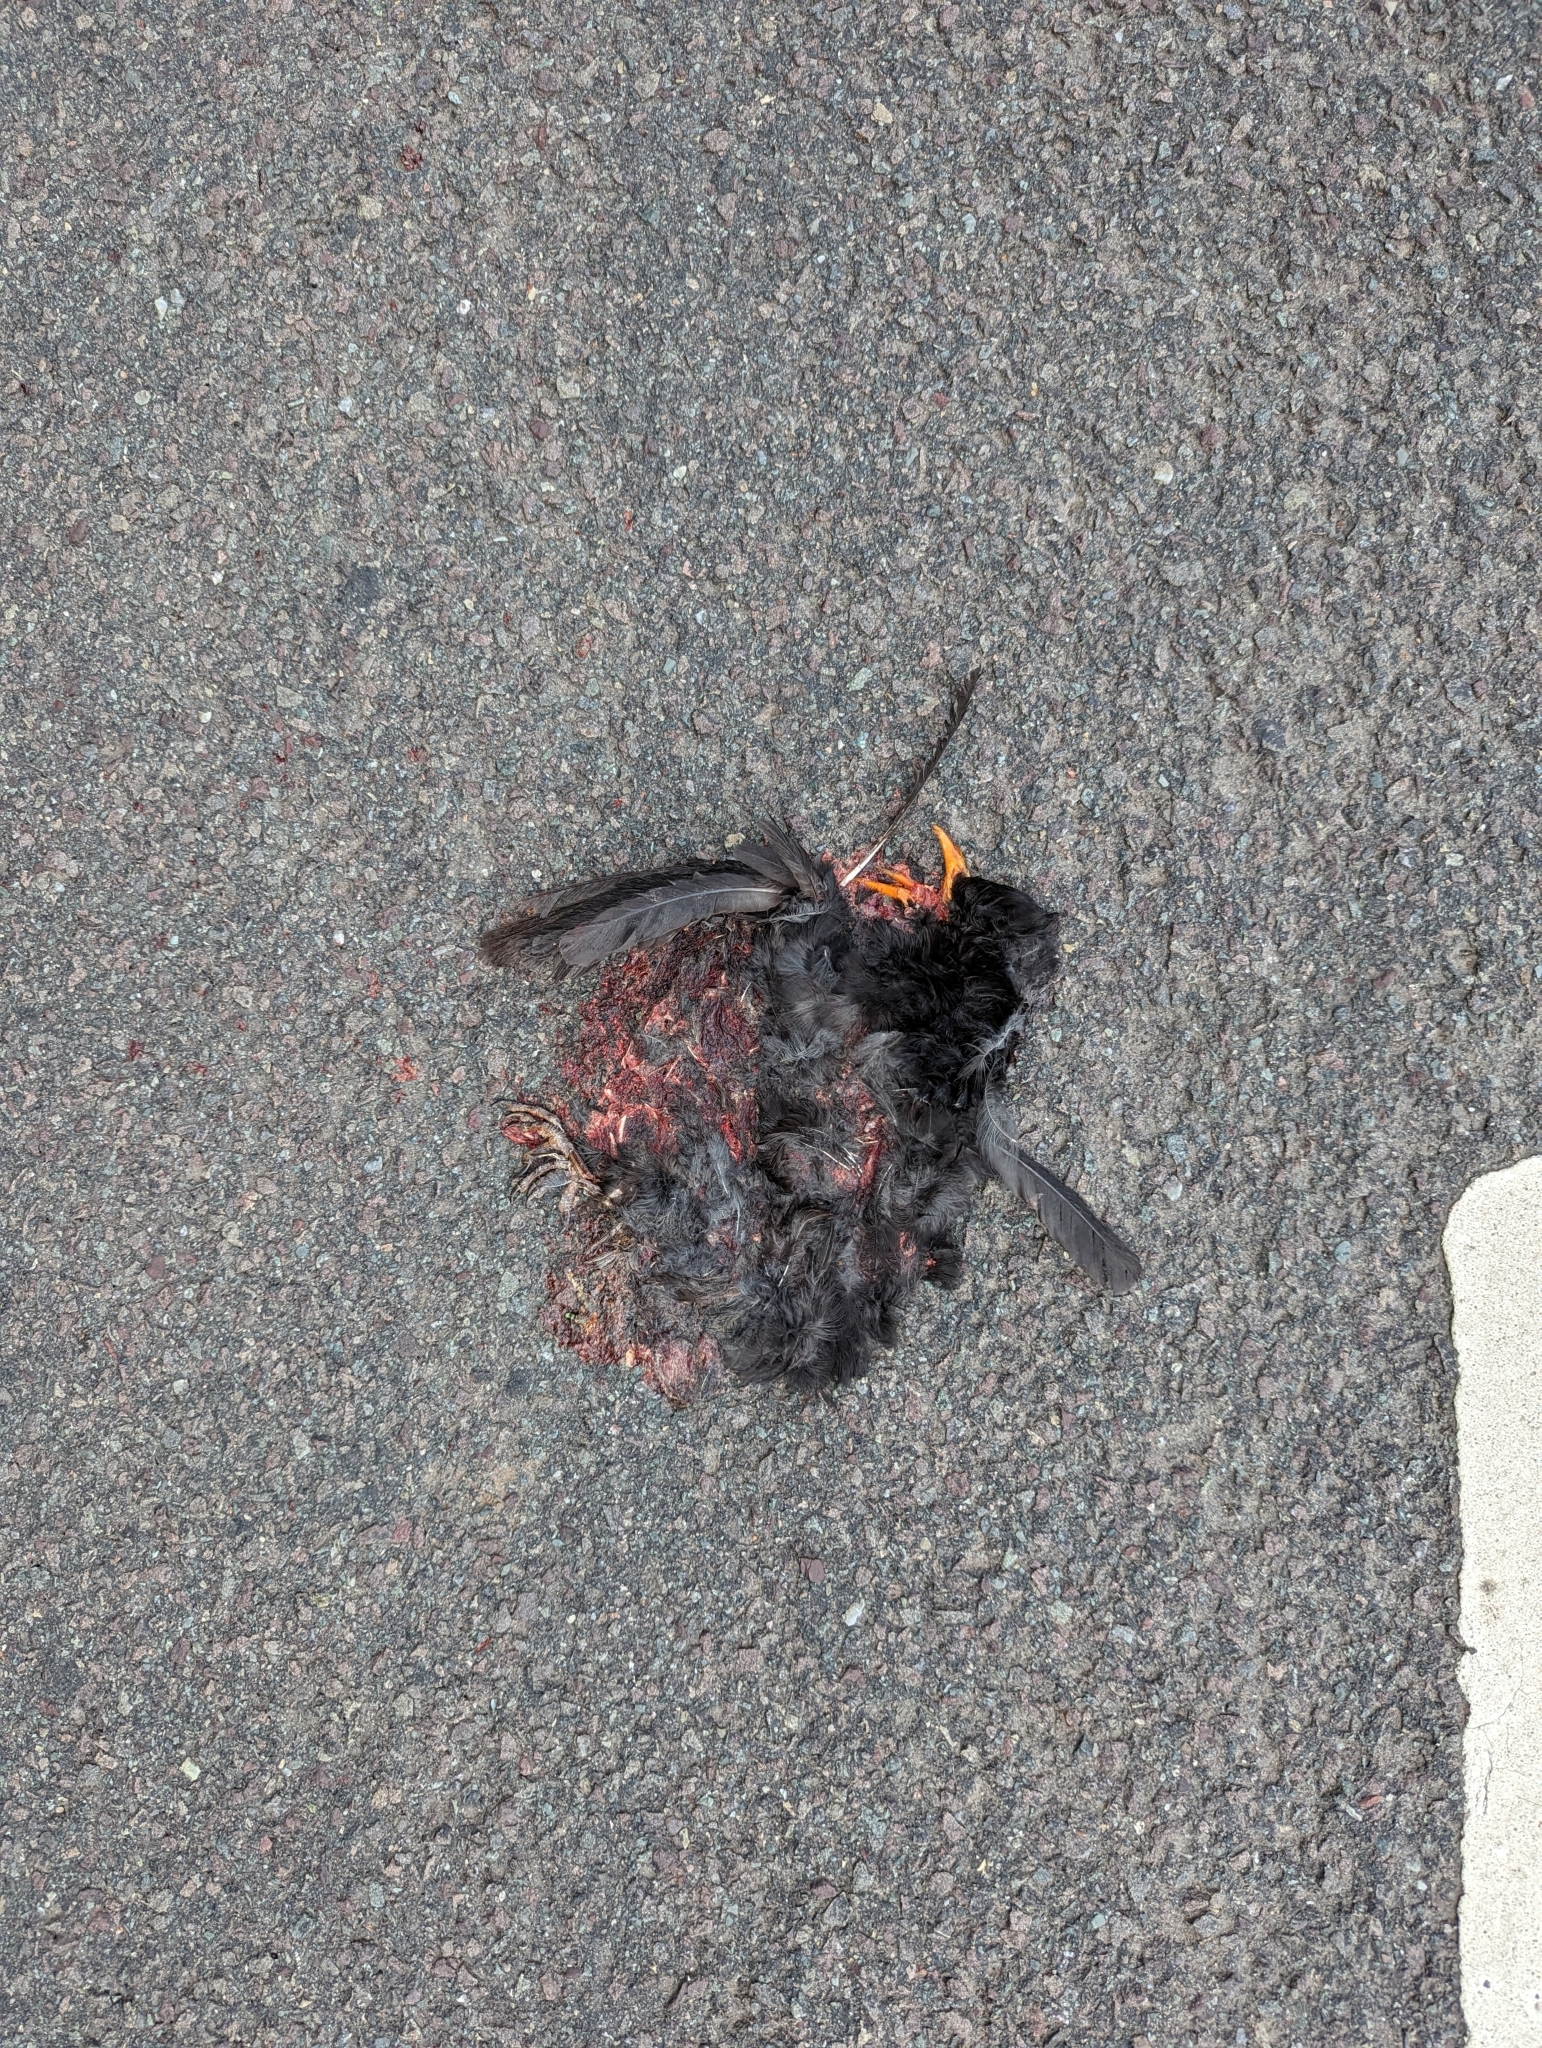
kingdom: Animalia
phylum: Chordata
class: Aves
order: Passeriformes
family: Turdidae
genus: Turdus
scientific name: Turdus merula
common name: Common blackbird
